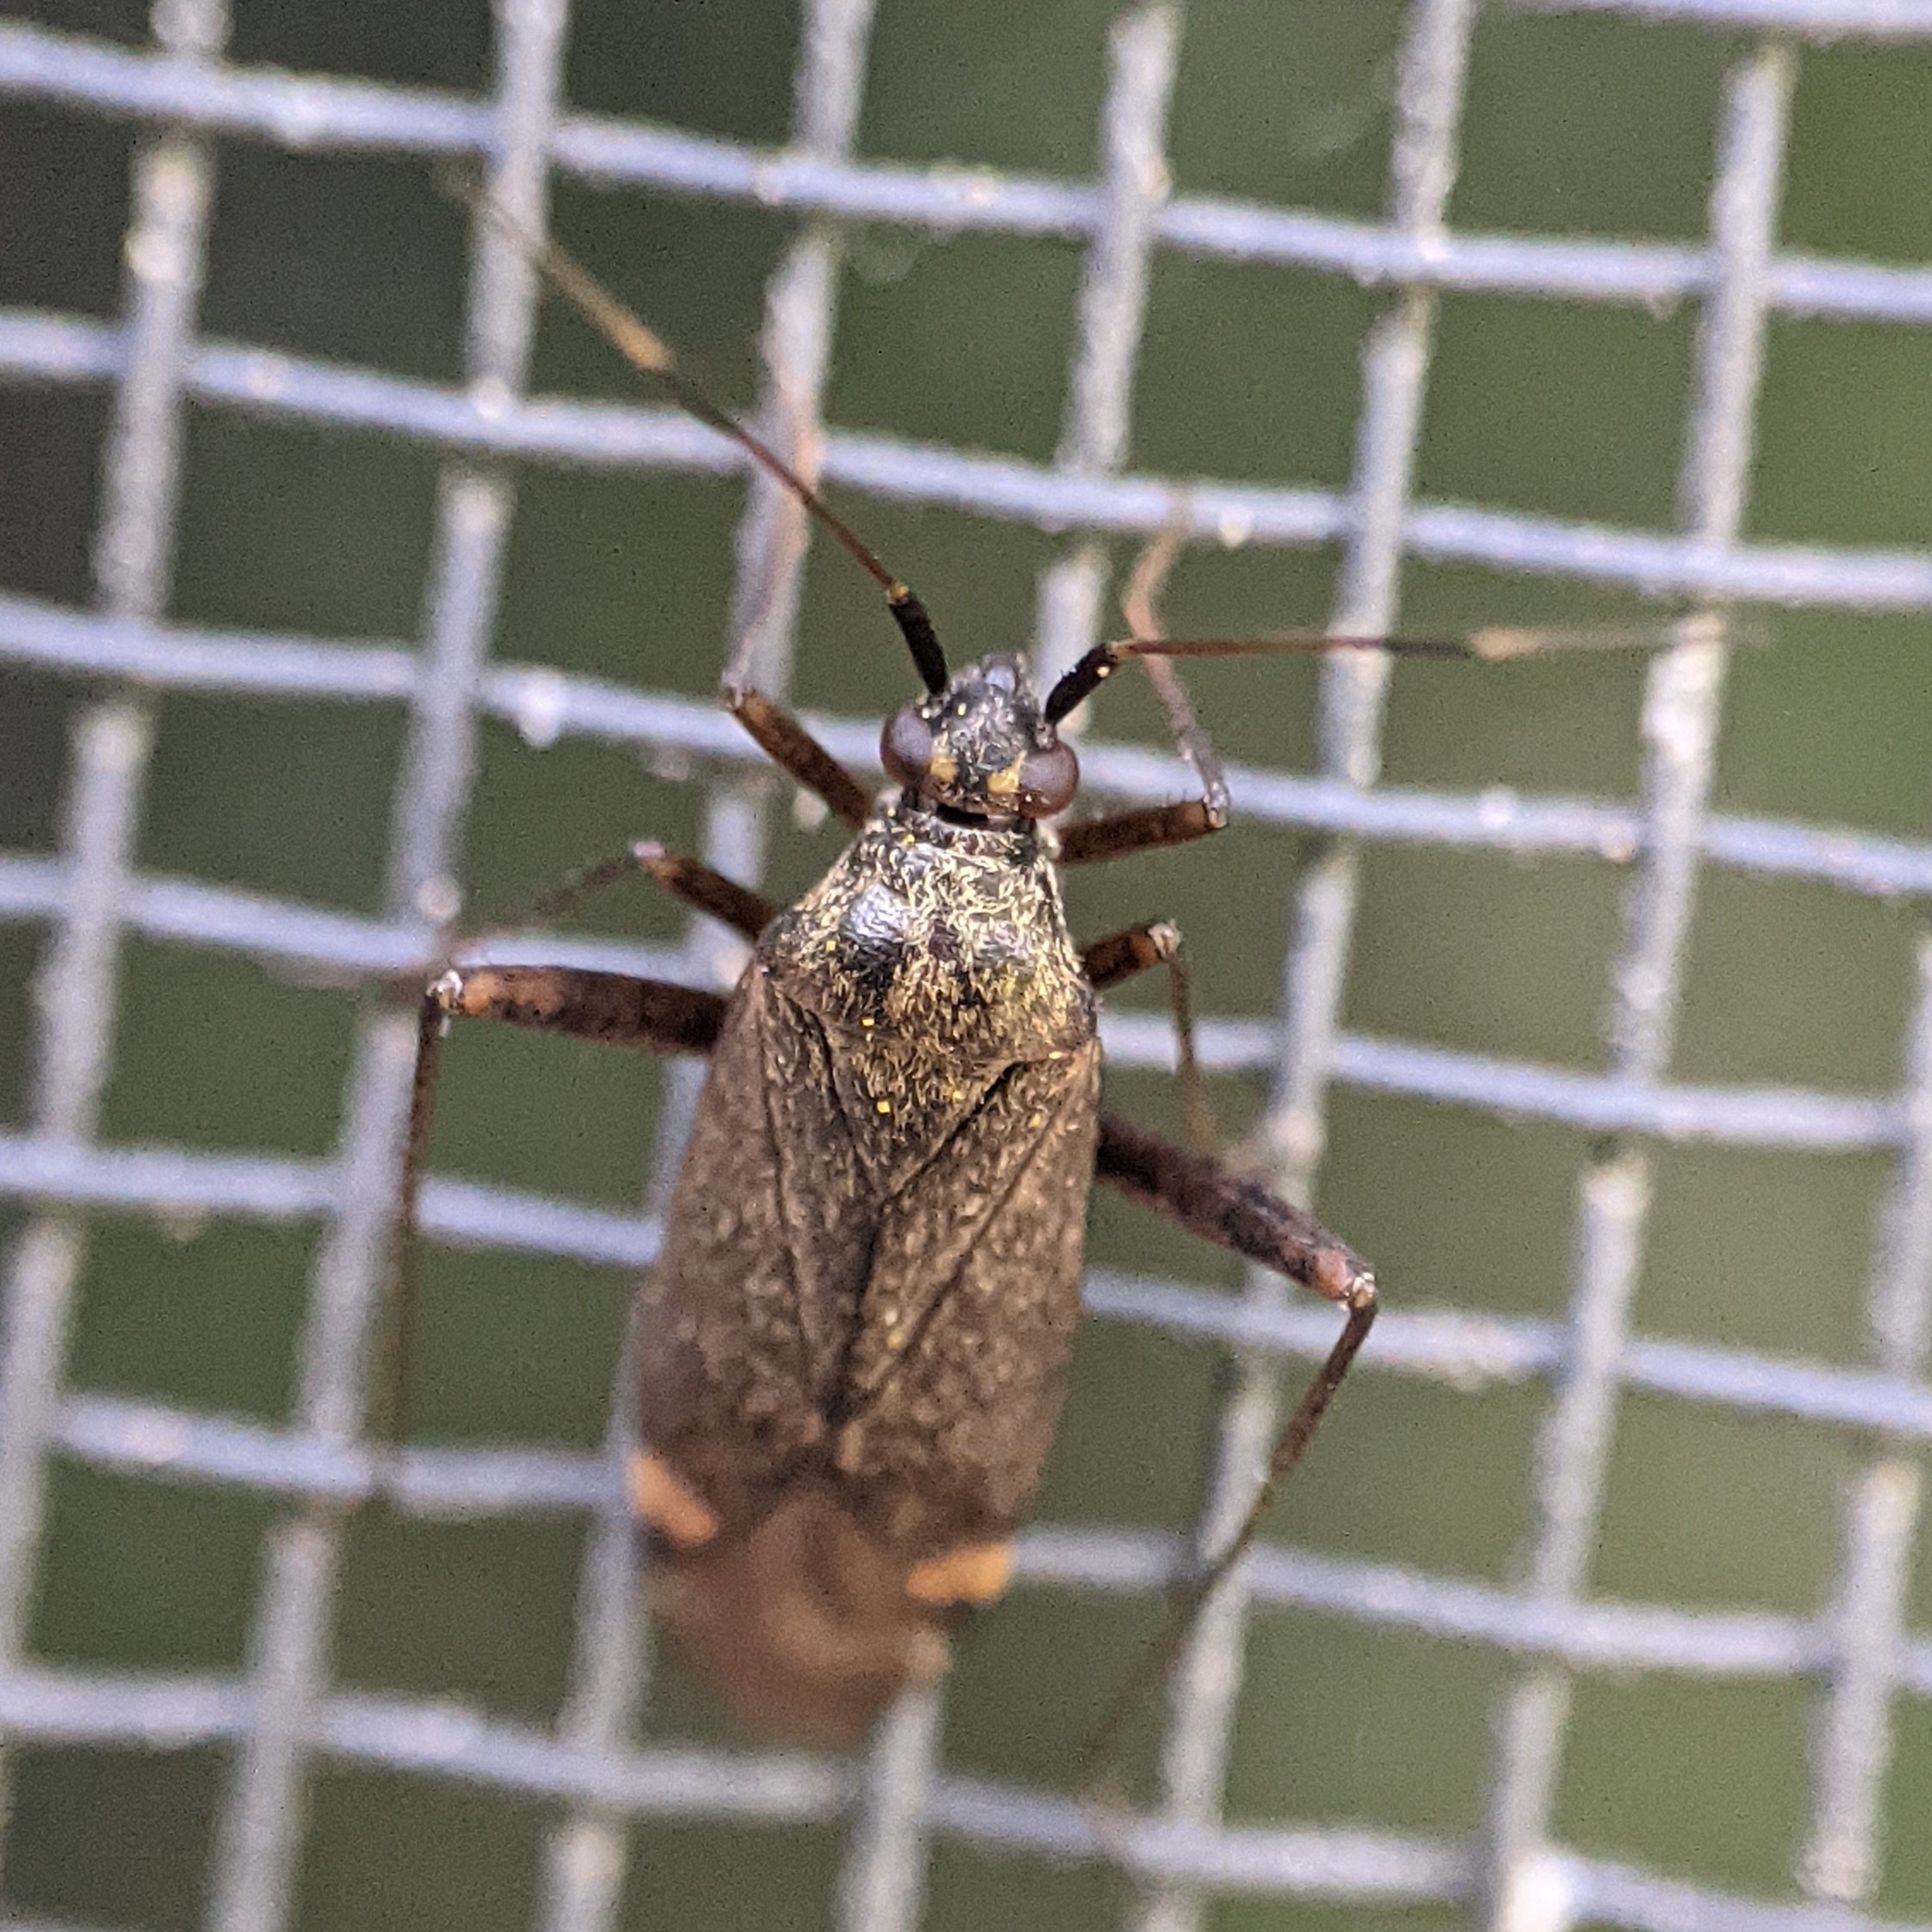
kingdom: Animalia
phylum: Arthropoda
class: Insecta
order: Hemiptera
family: Miridae
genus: Closterotomus
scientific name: Closterotomus fulvomaculatus
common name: Spotted plant bug
